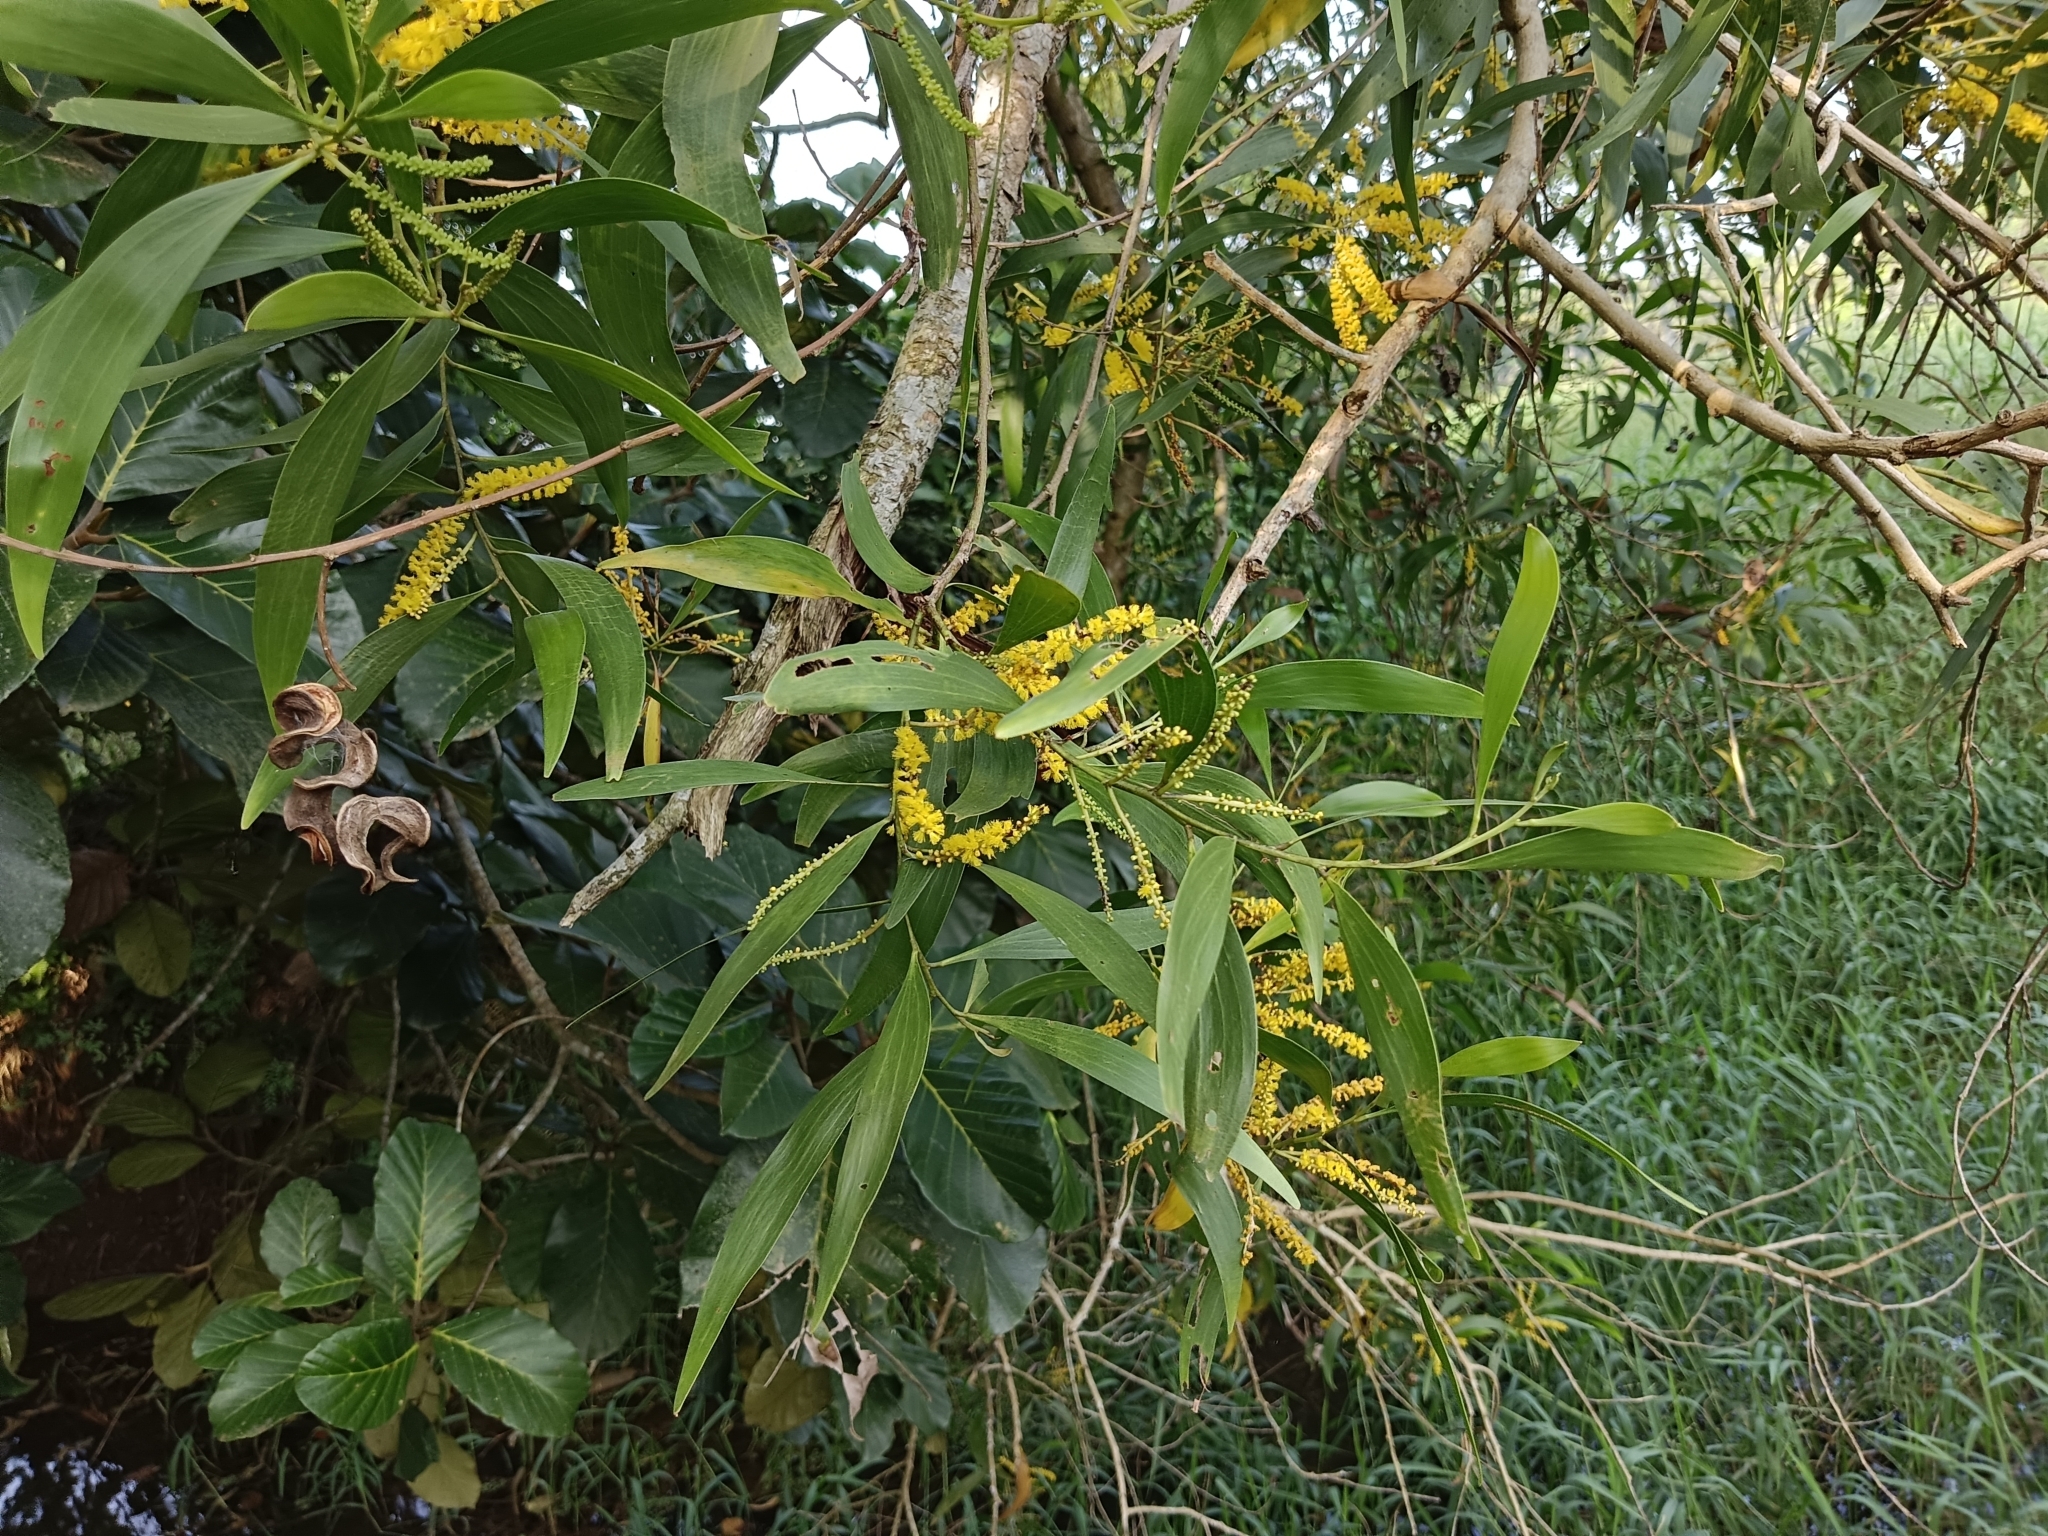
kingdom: Plantae
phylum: Tracheophyta
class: Magnoliopsida
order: Fabales
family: Fabaceae
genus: Acacia
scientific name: Acacia auriculiformis
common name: Earleaf acacia
